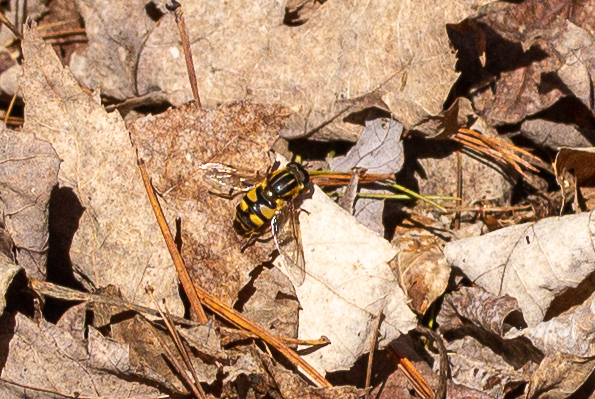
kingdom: Animalia
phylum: Arthropoda
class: Insecta
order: Diptera
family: Syrphidae
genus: Helophilus
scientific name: Helophilus fasciatus
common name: Narrow-headed marsh fly
